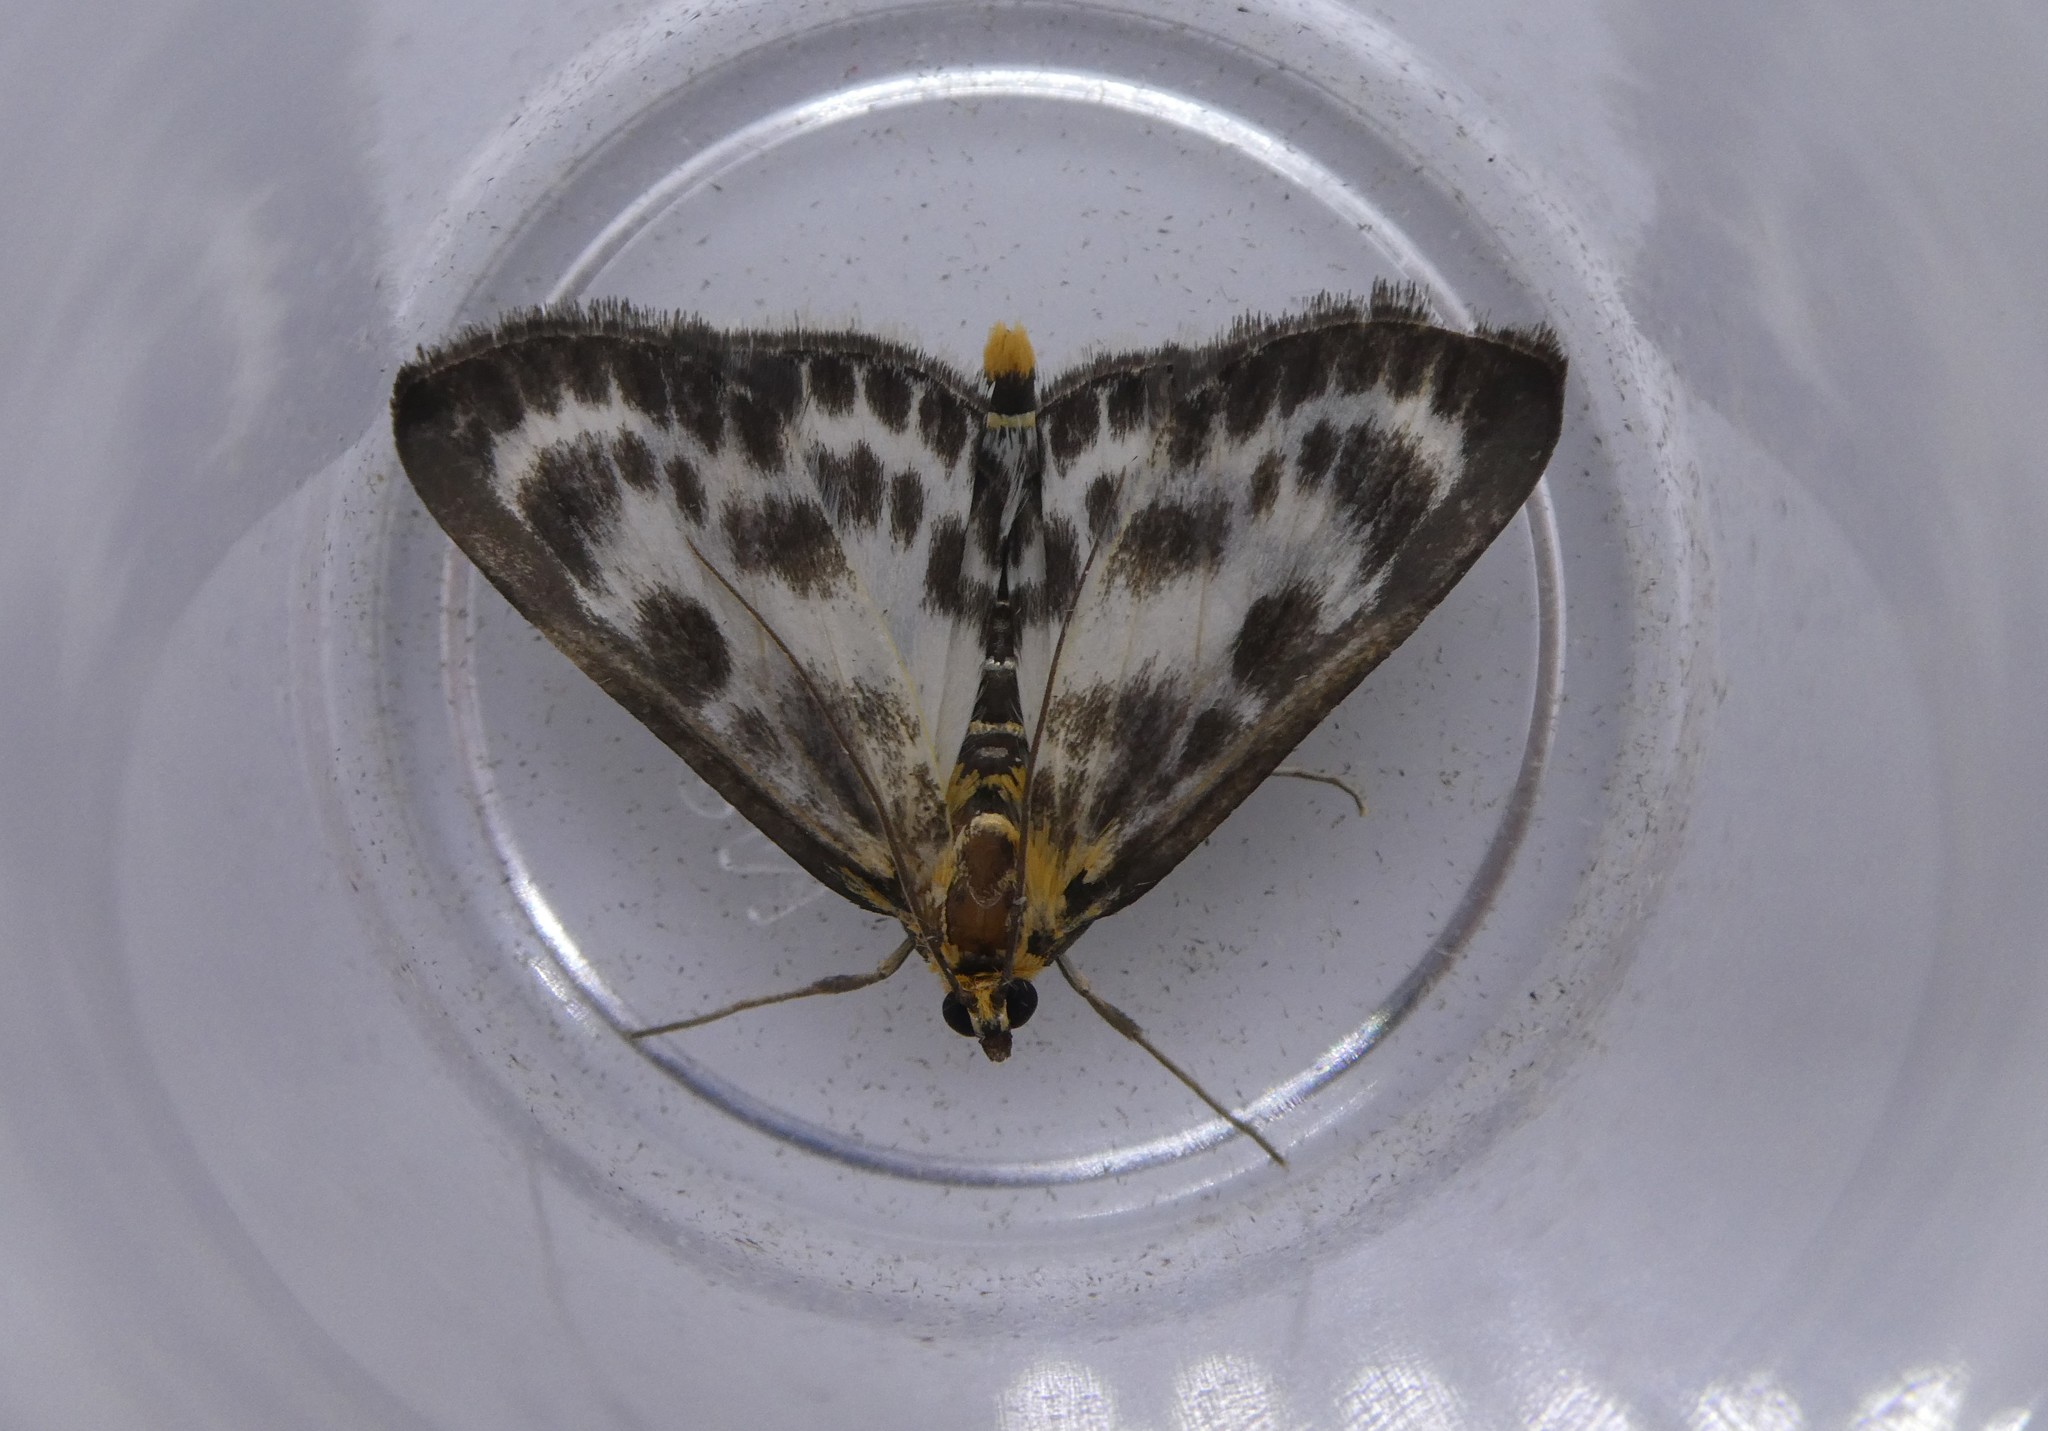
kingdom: Animalia
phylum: Arthropoda
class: Insecta
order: Lepidoptera
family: Crambidae
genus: Anania
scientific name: Anania hortulata
